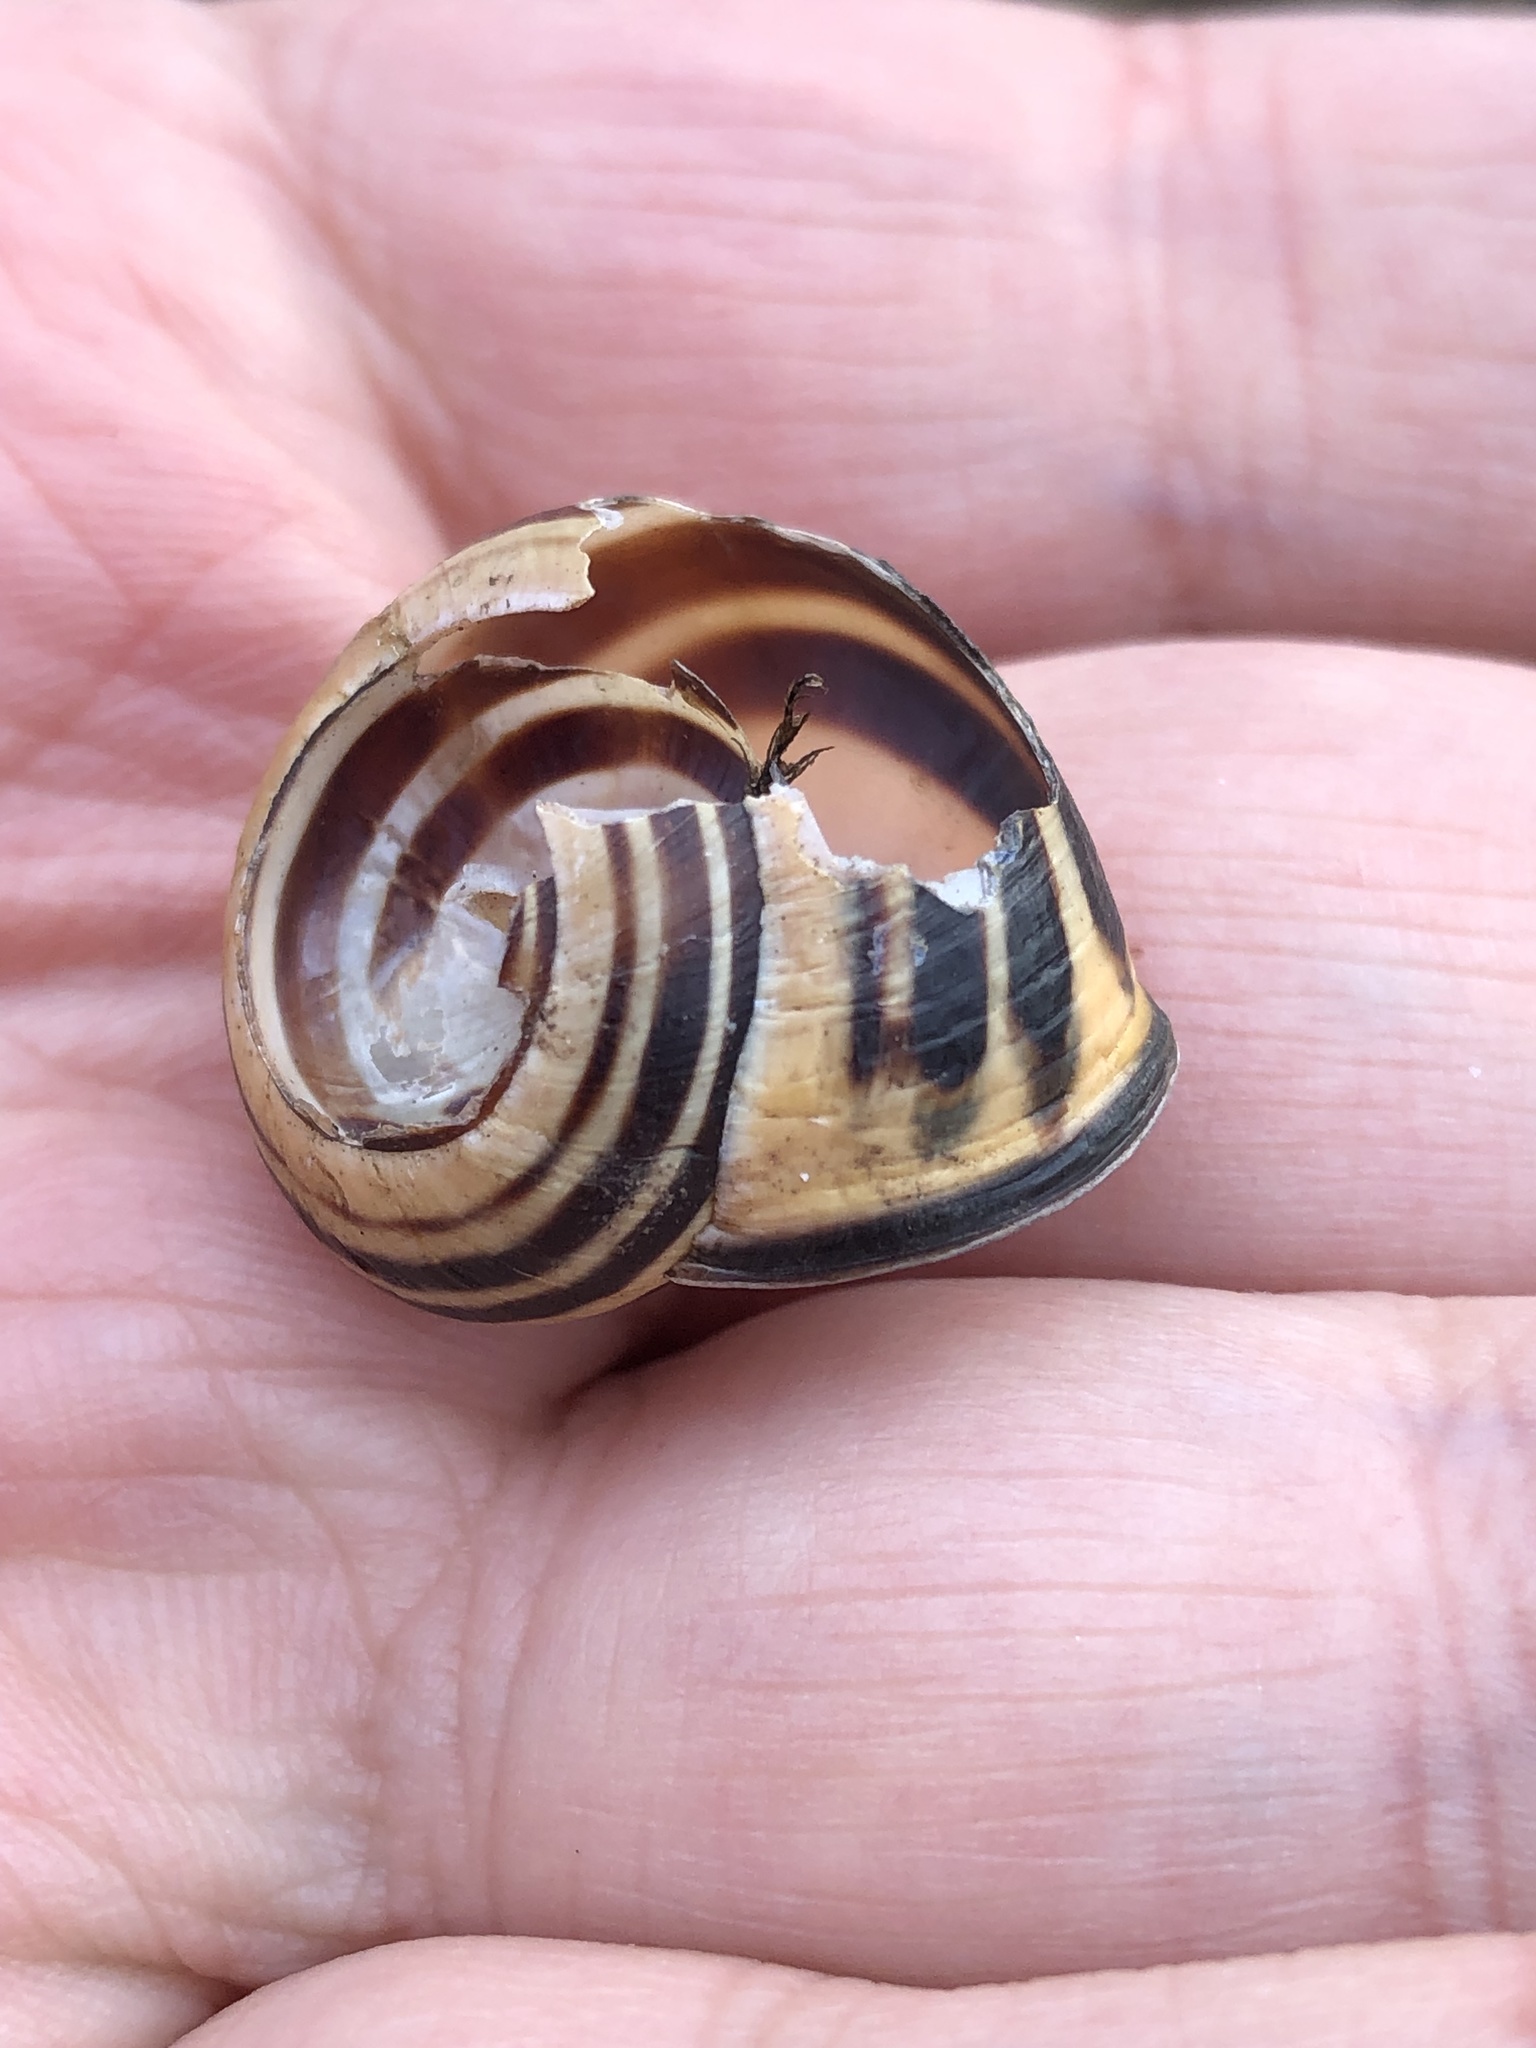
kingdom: Animalia
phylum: Mollusca
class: Gastropoda
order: Stylommatophora
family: Helicidae
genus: Cepaea
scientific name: Cepaea nemoralis
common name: Grovesnail
